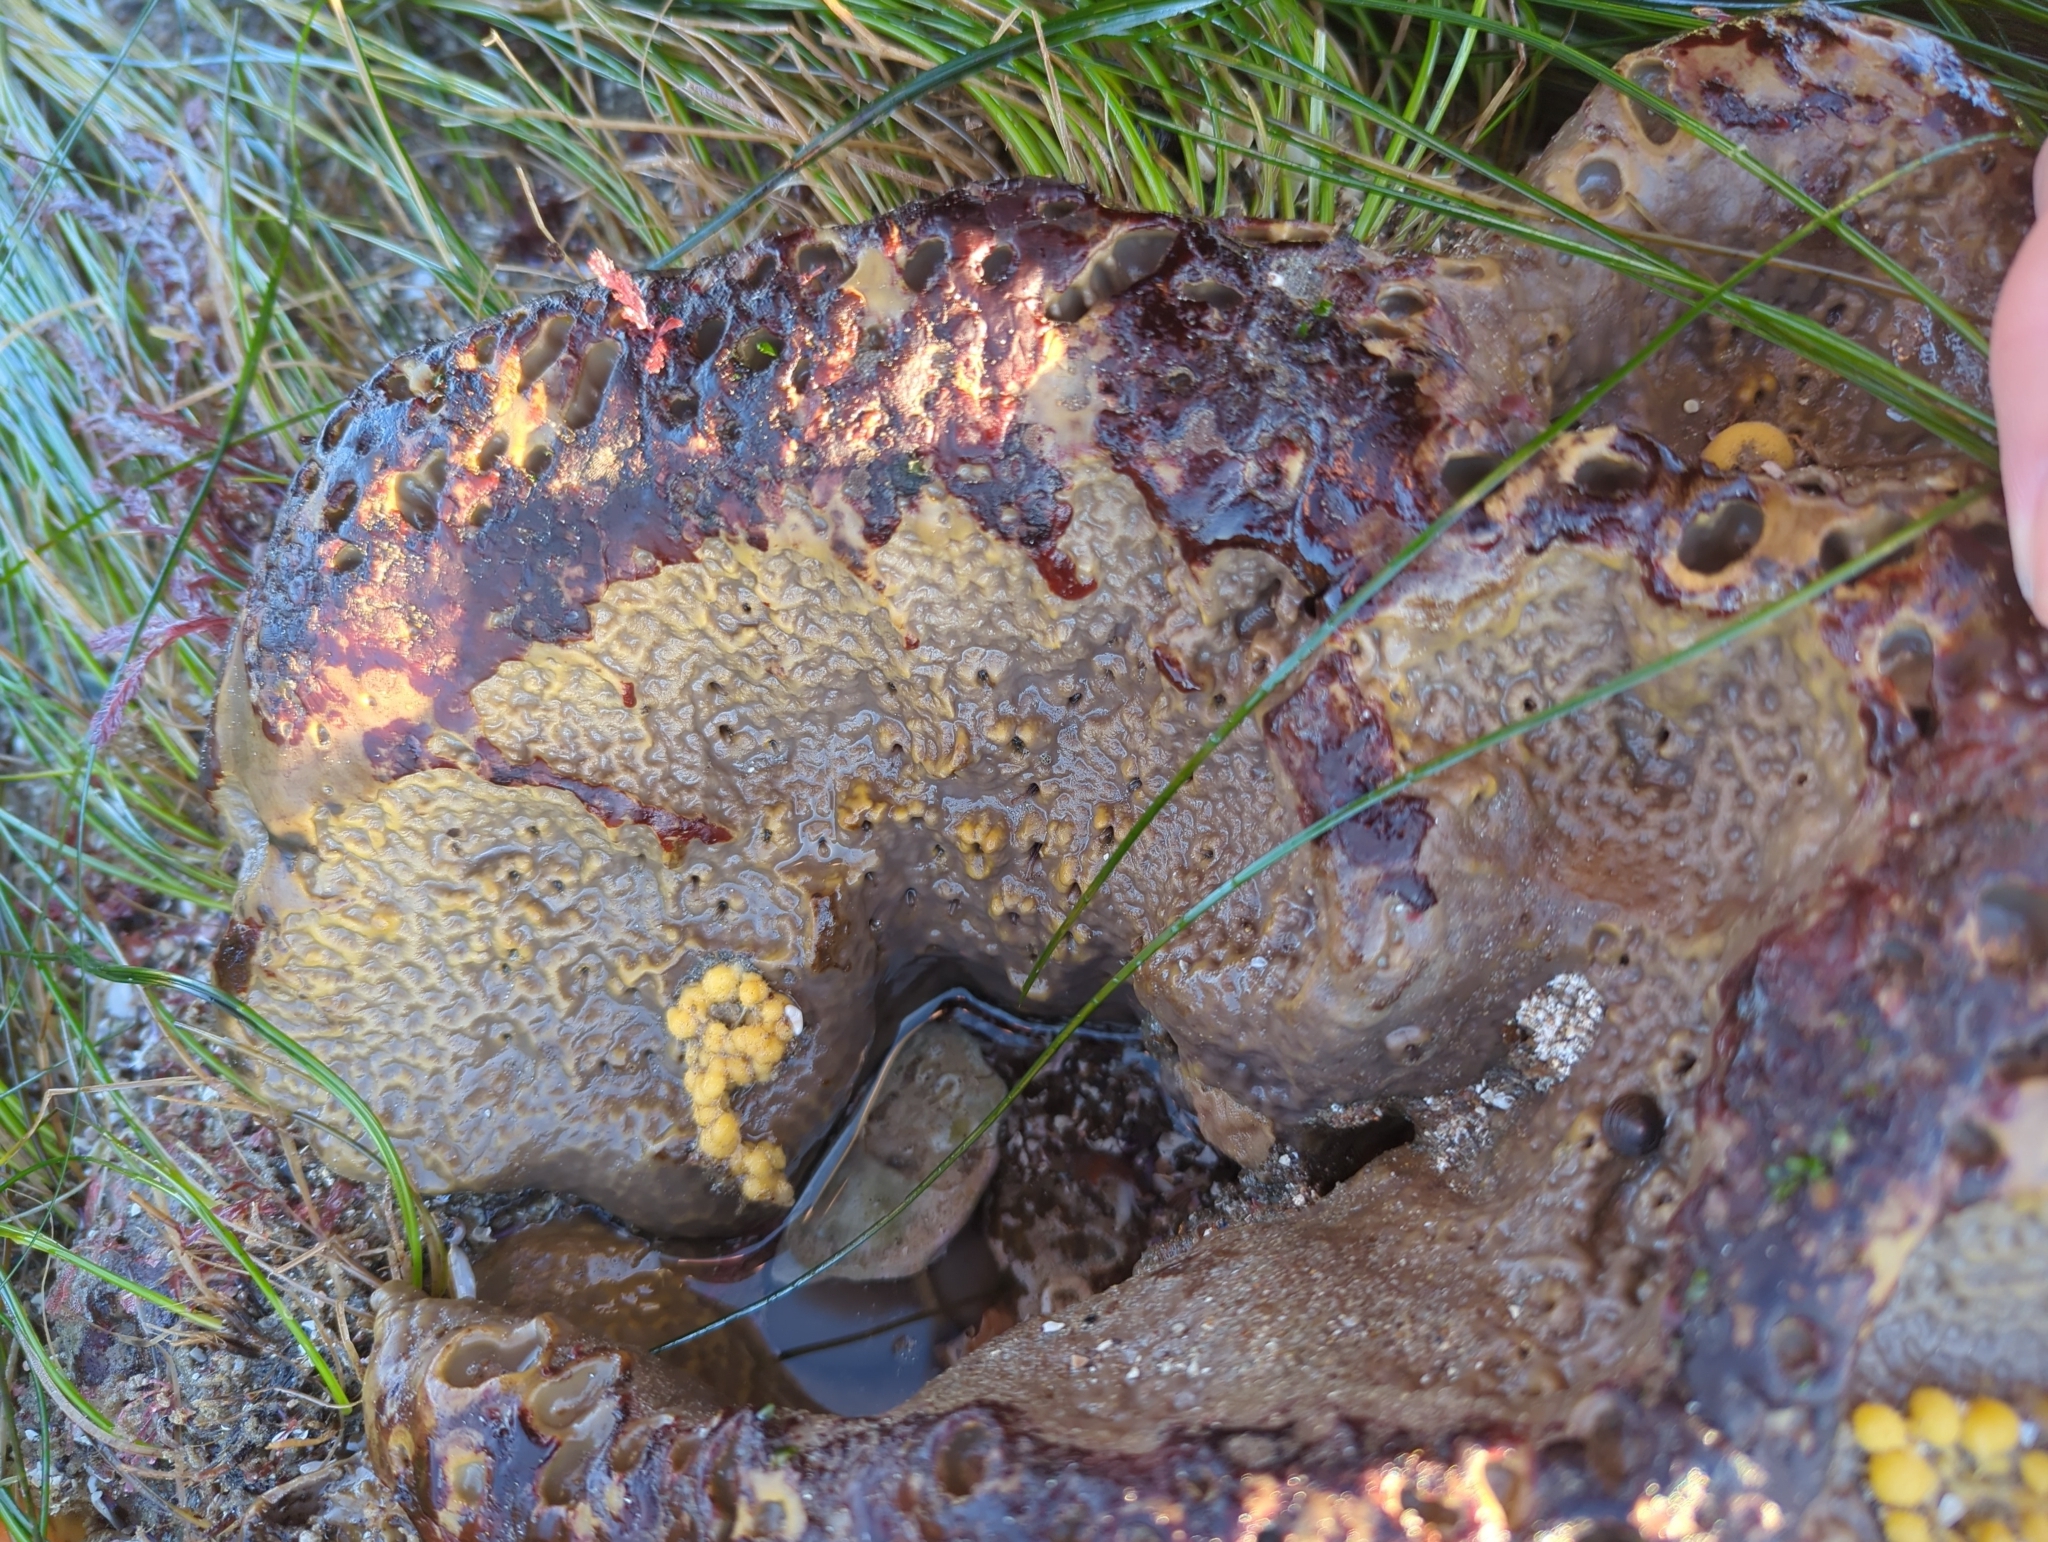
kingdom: Animalia
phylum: Porifera
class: Demospongiae
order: Clionaida
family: Clionaidae
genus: Spheciospongia
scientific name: Spheciospongia confoederata
